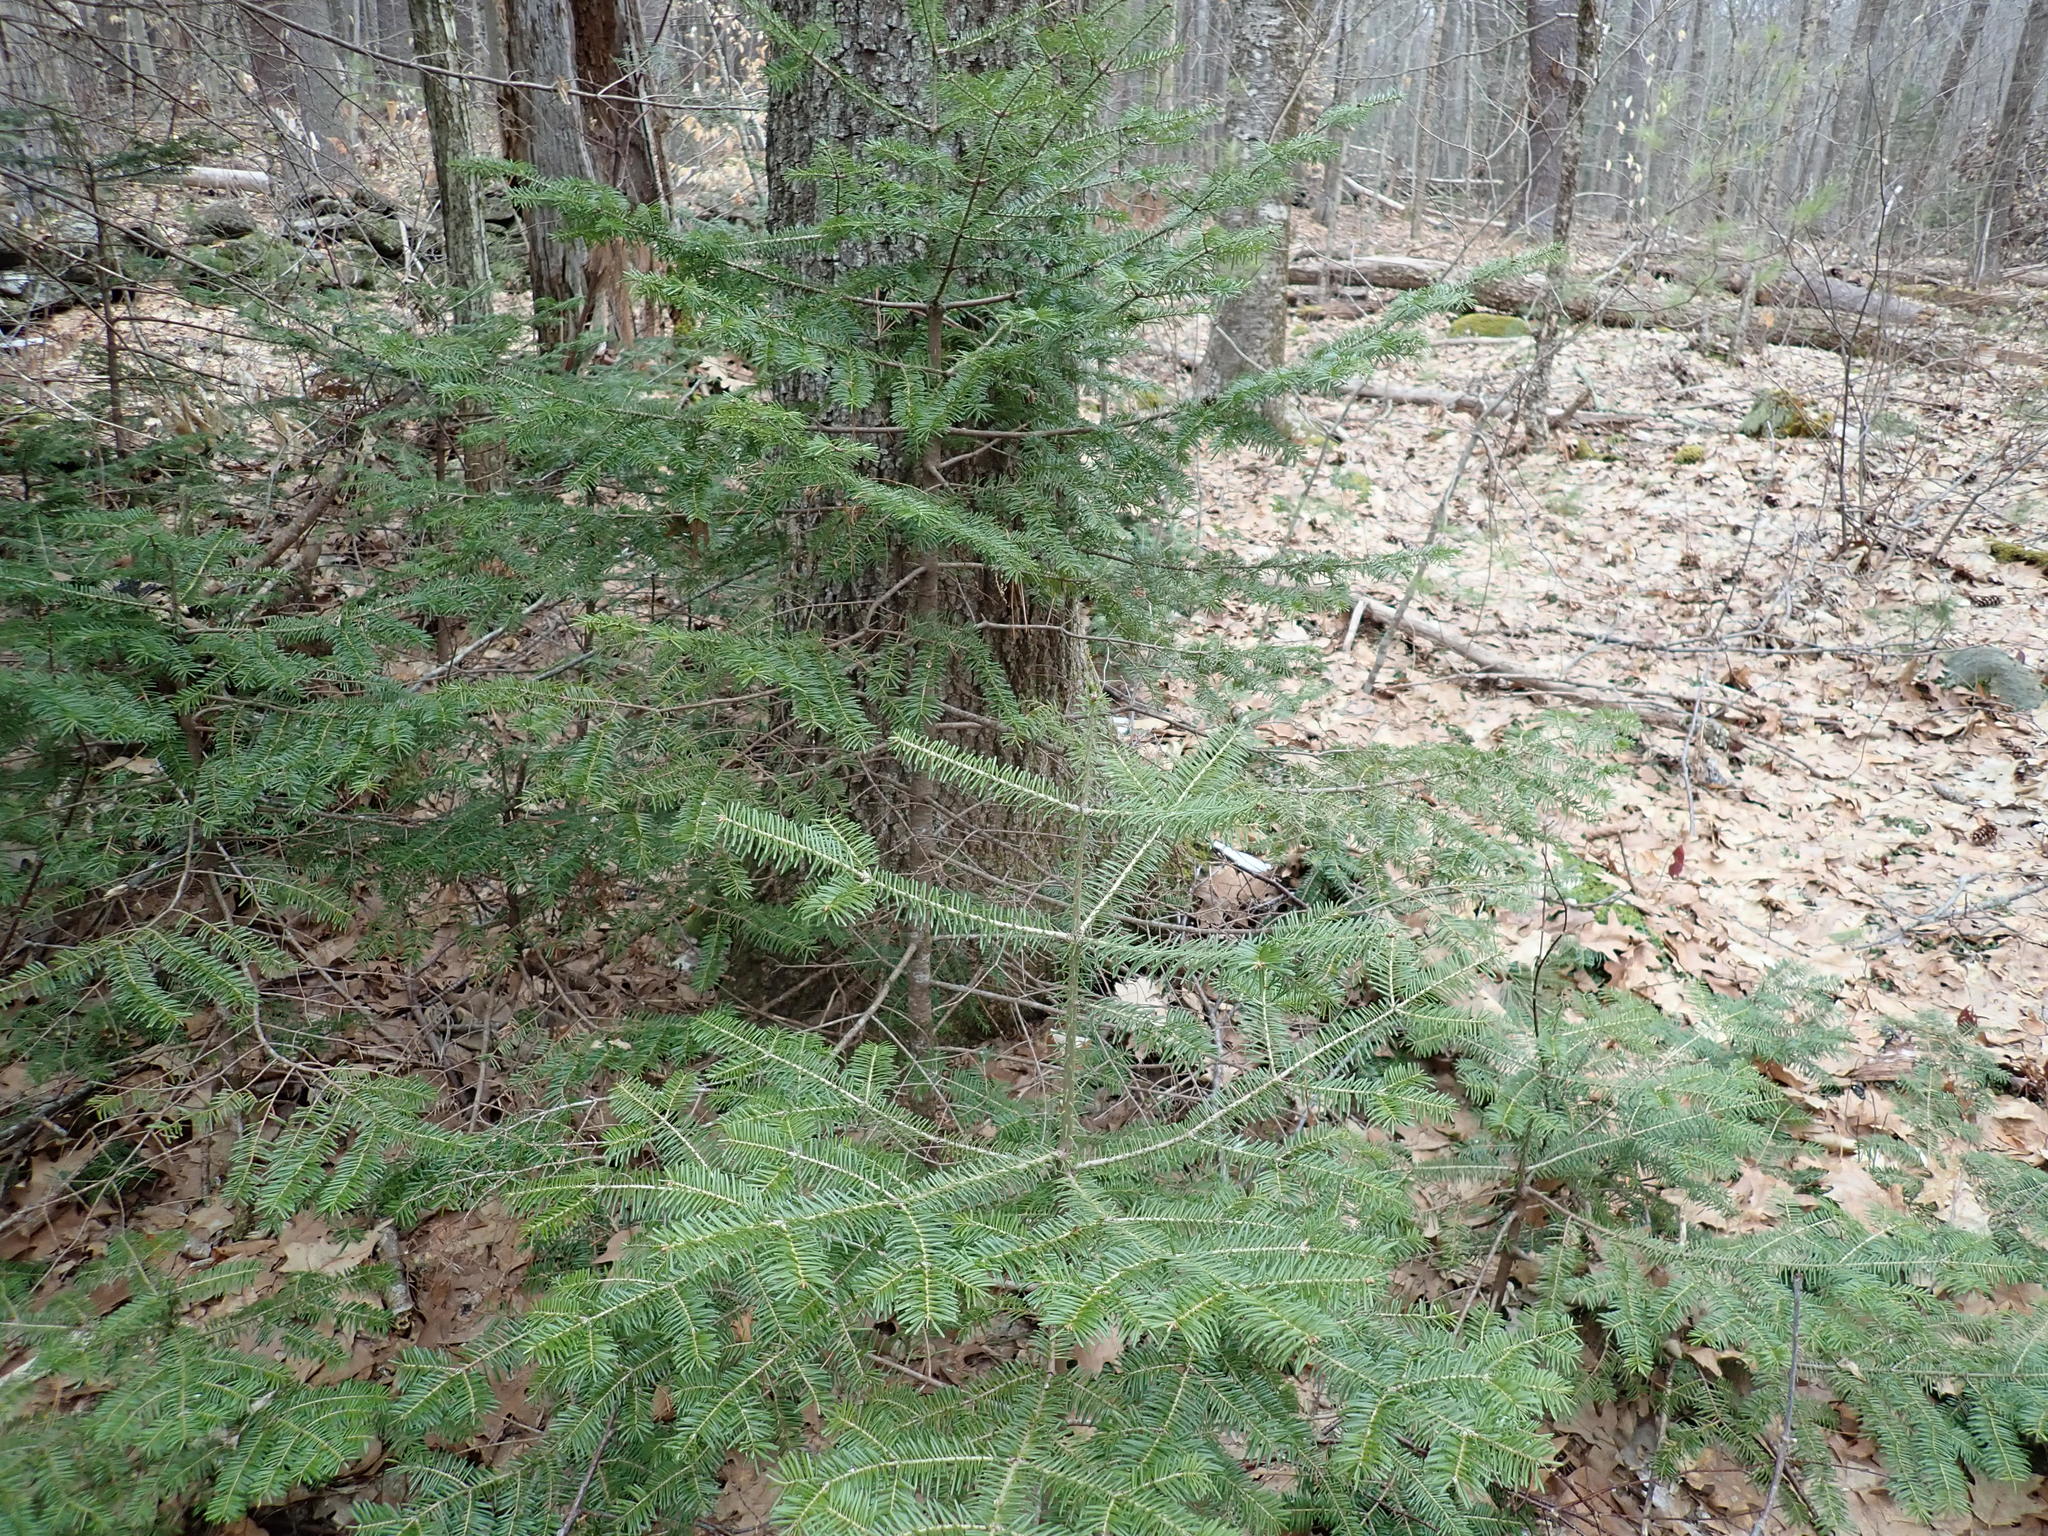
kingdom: Plantae
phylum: Tracheophyta
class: Pinopsida
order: Pinales
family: Pinaceae
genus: Abies
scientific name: Abies balsamea
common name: Balsam fir
